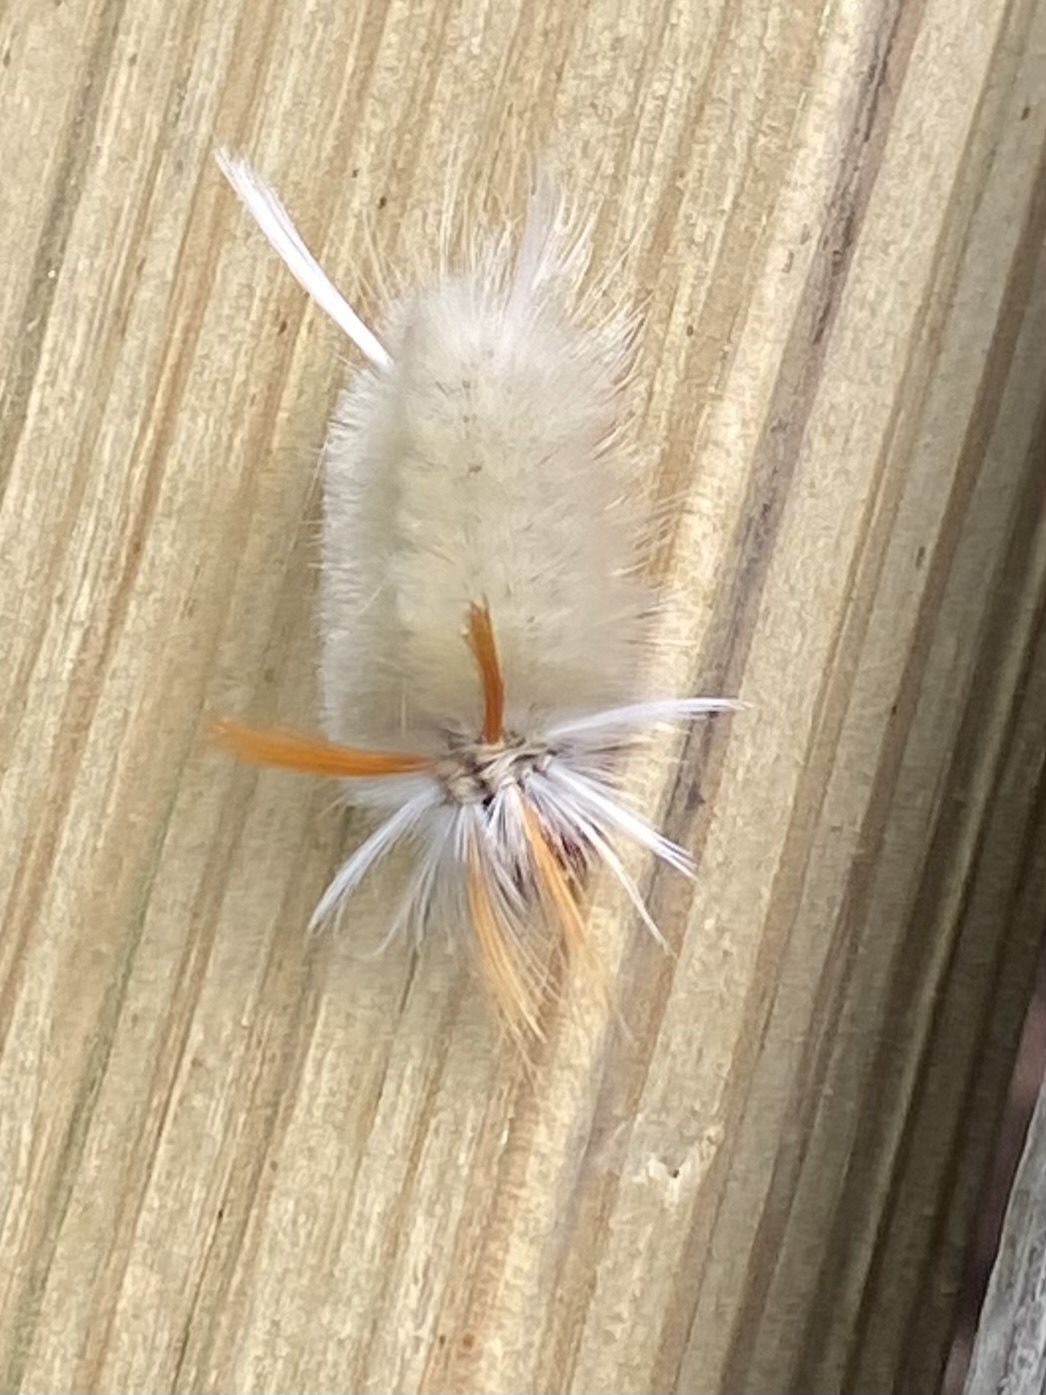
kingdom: Animalia
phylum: Arthropoda
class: Insecta
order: Lepidoptera
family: Erebidae
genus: Halysidota
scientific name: Halysidota harrisii
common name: Sycamore tussock moth
